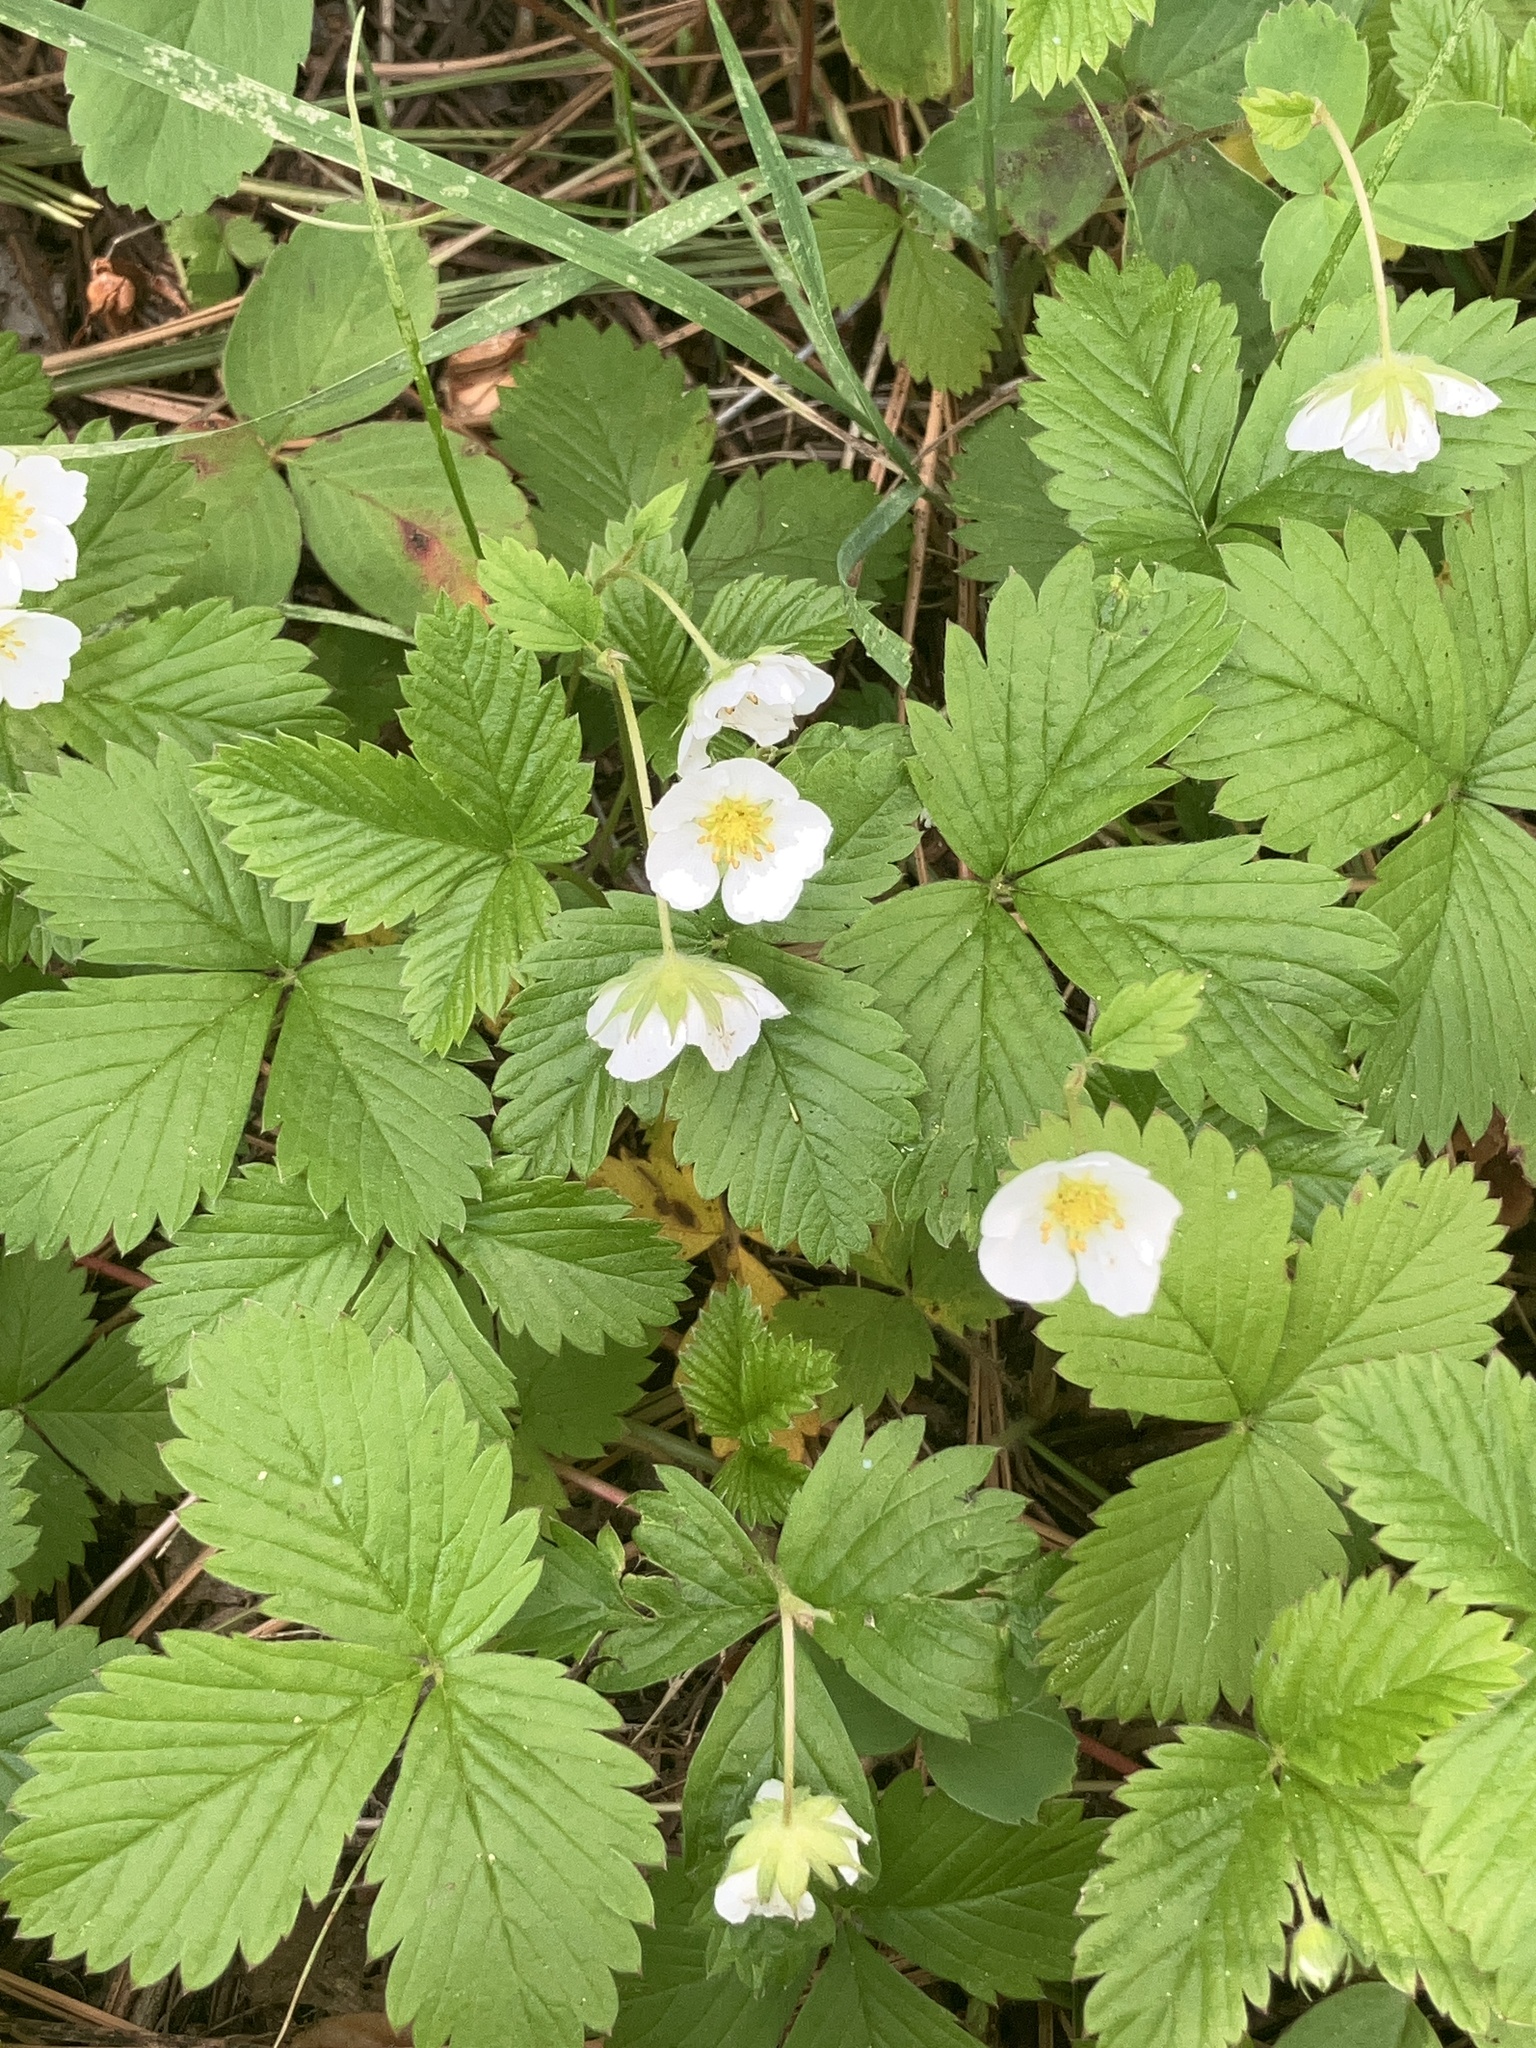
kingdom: Plantae
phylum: Tracheophyta
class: Magnoliopsida
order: Rosales
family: Rosaceae
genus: Fragaria
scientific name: Fragaria vesca
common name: Wild strawberry
